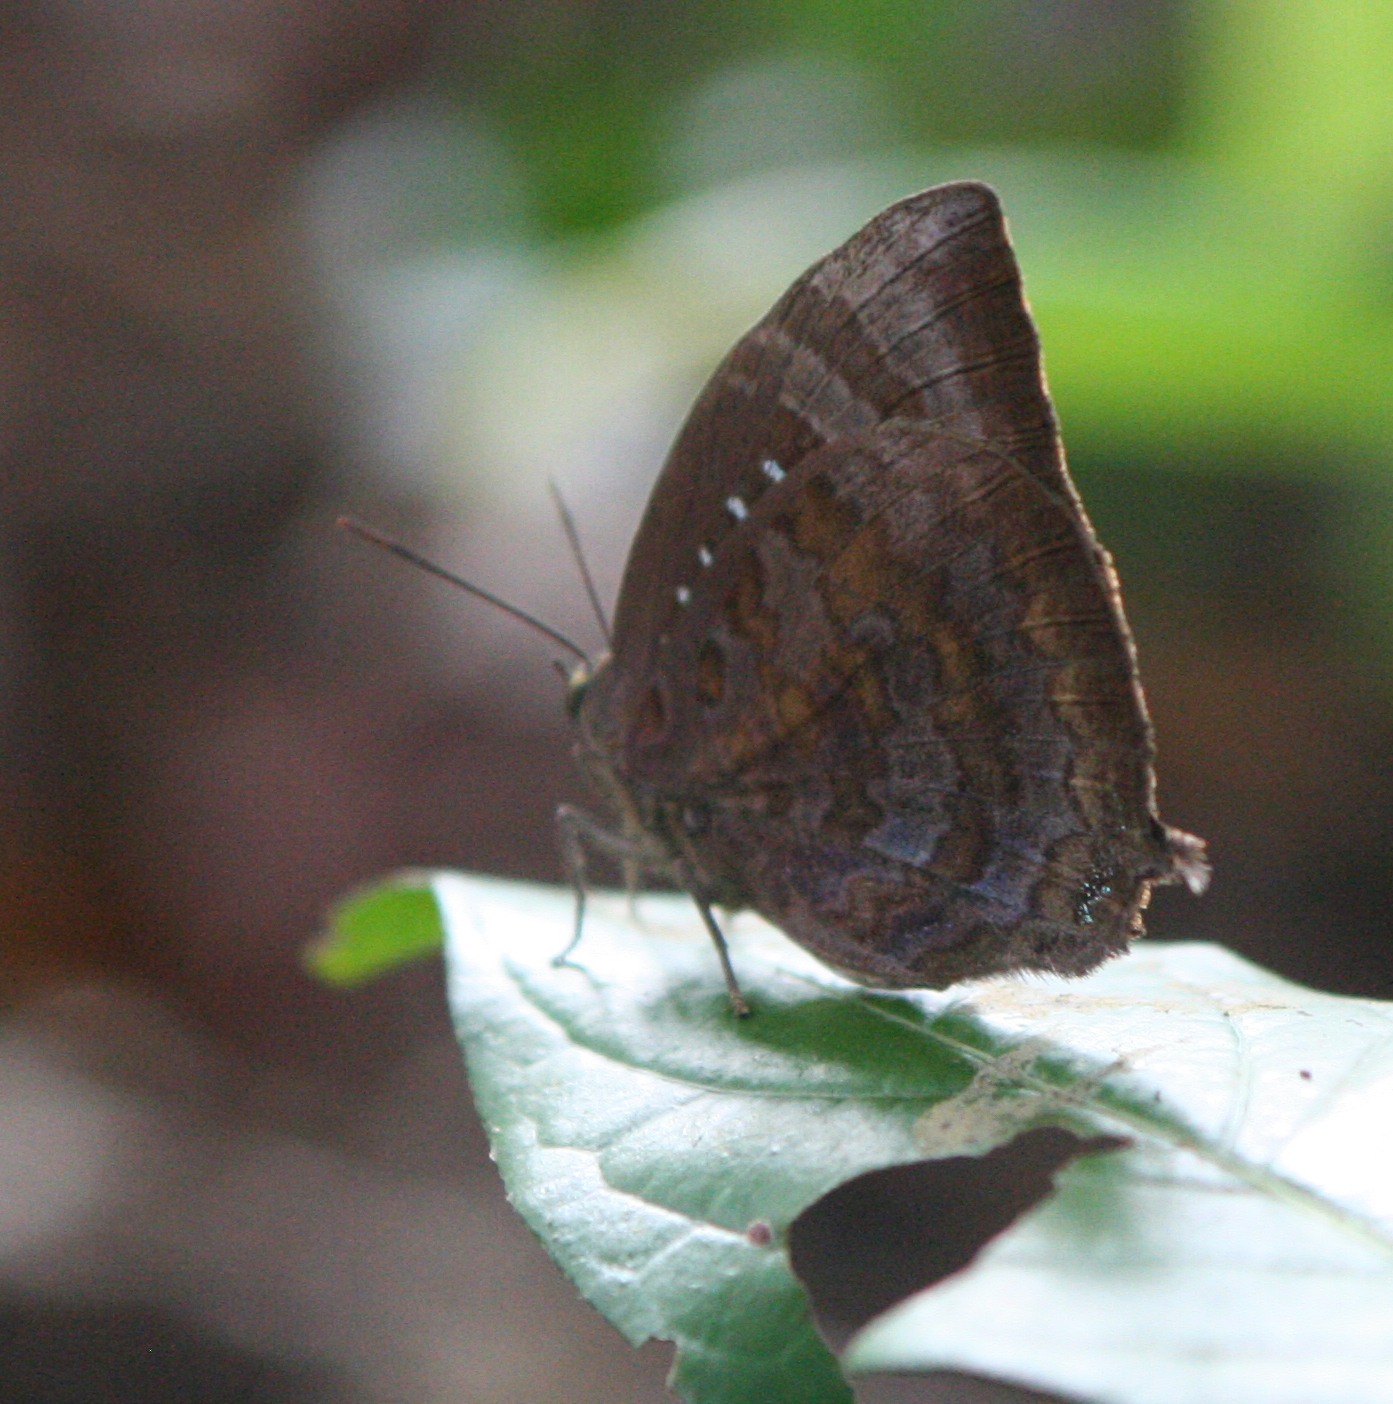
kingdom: Animalia
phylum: Arthropoda
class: Insecta
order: Lepidoptera
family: Lycaenidae
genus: Arhopala
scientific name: Arhopala centaurus
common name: Dull oak-blue
